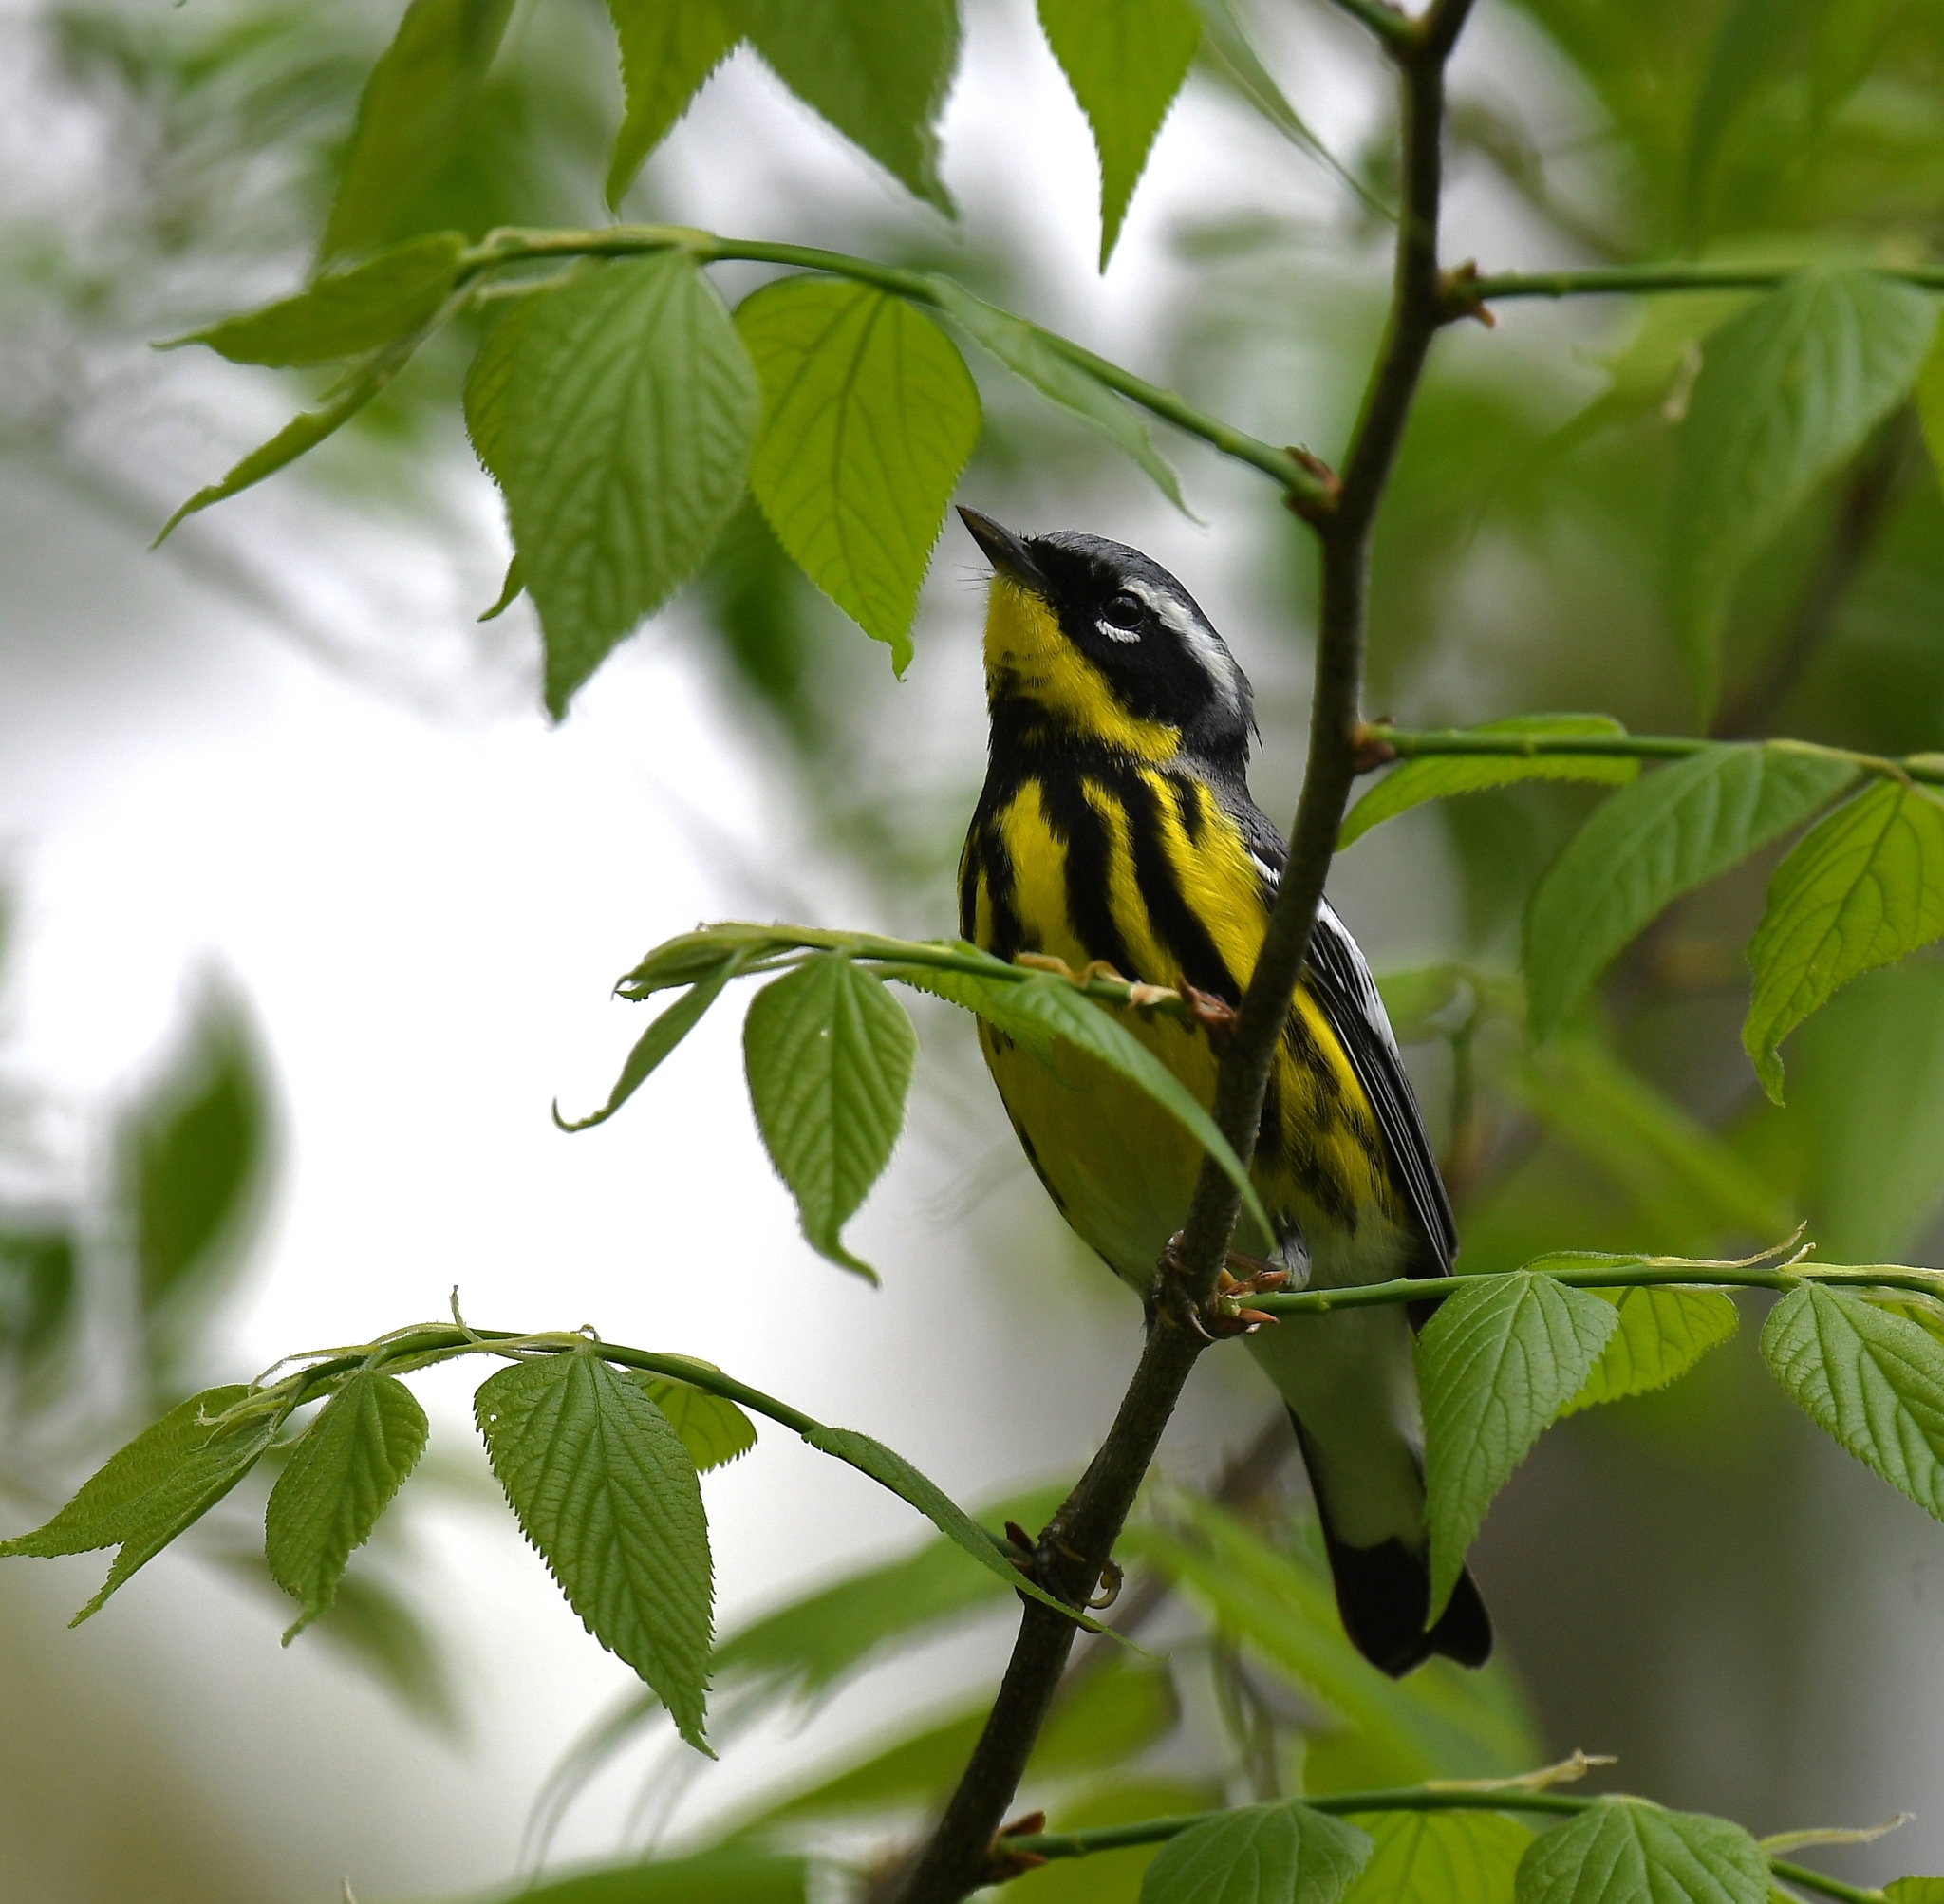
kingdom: Animalia
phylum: Chordata
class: Aves
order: Passeriformes
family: Parulidae
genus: Setophaga
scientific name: Setophaga magnolia
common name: Magnolia warbler
